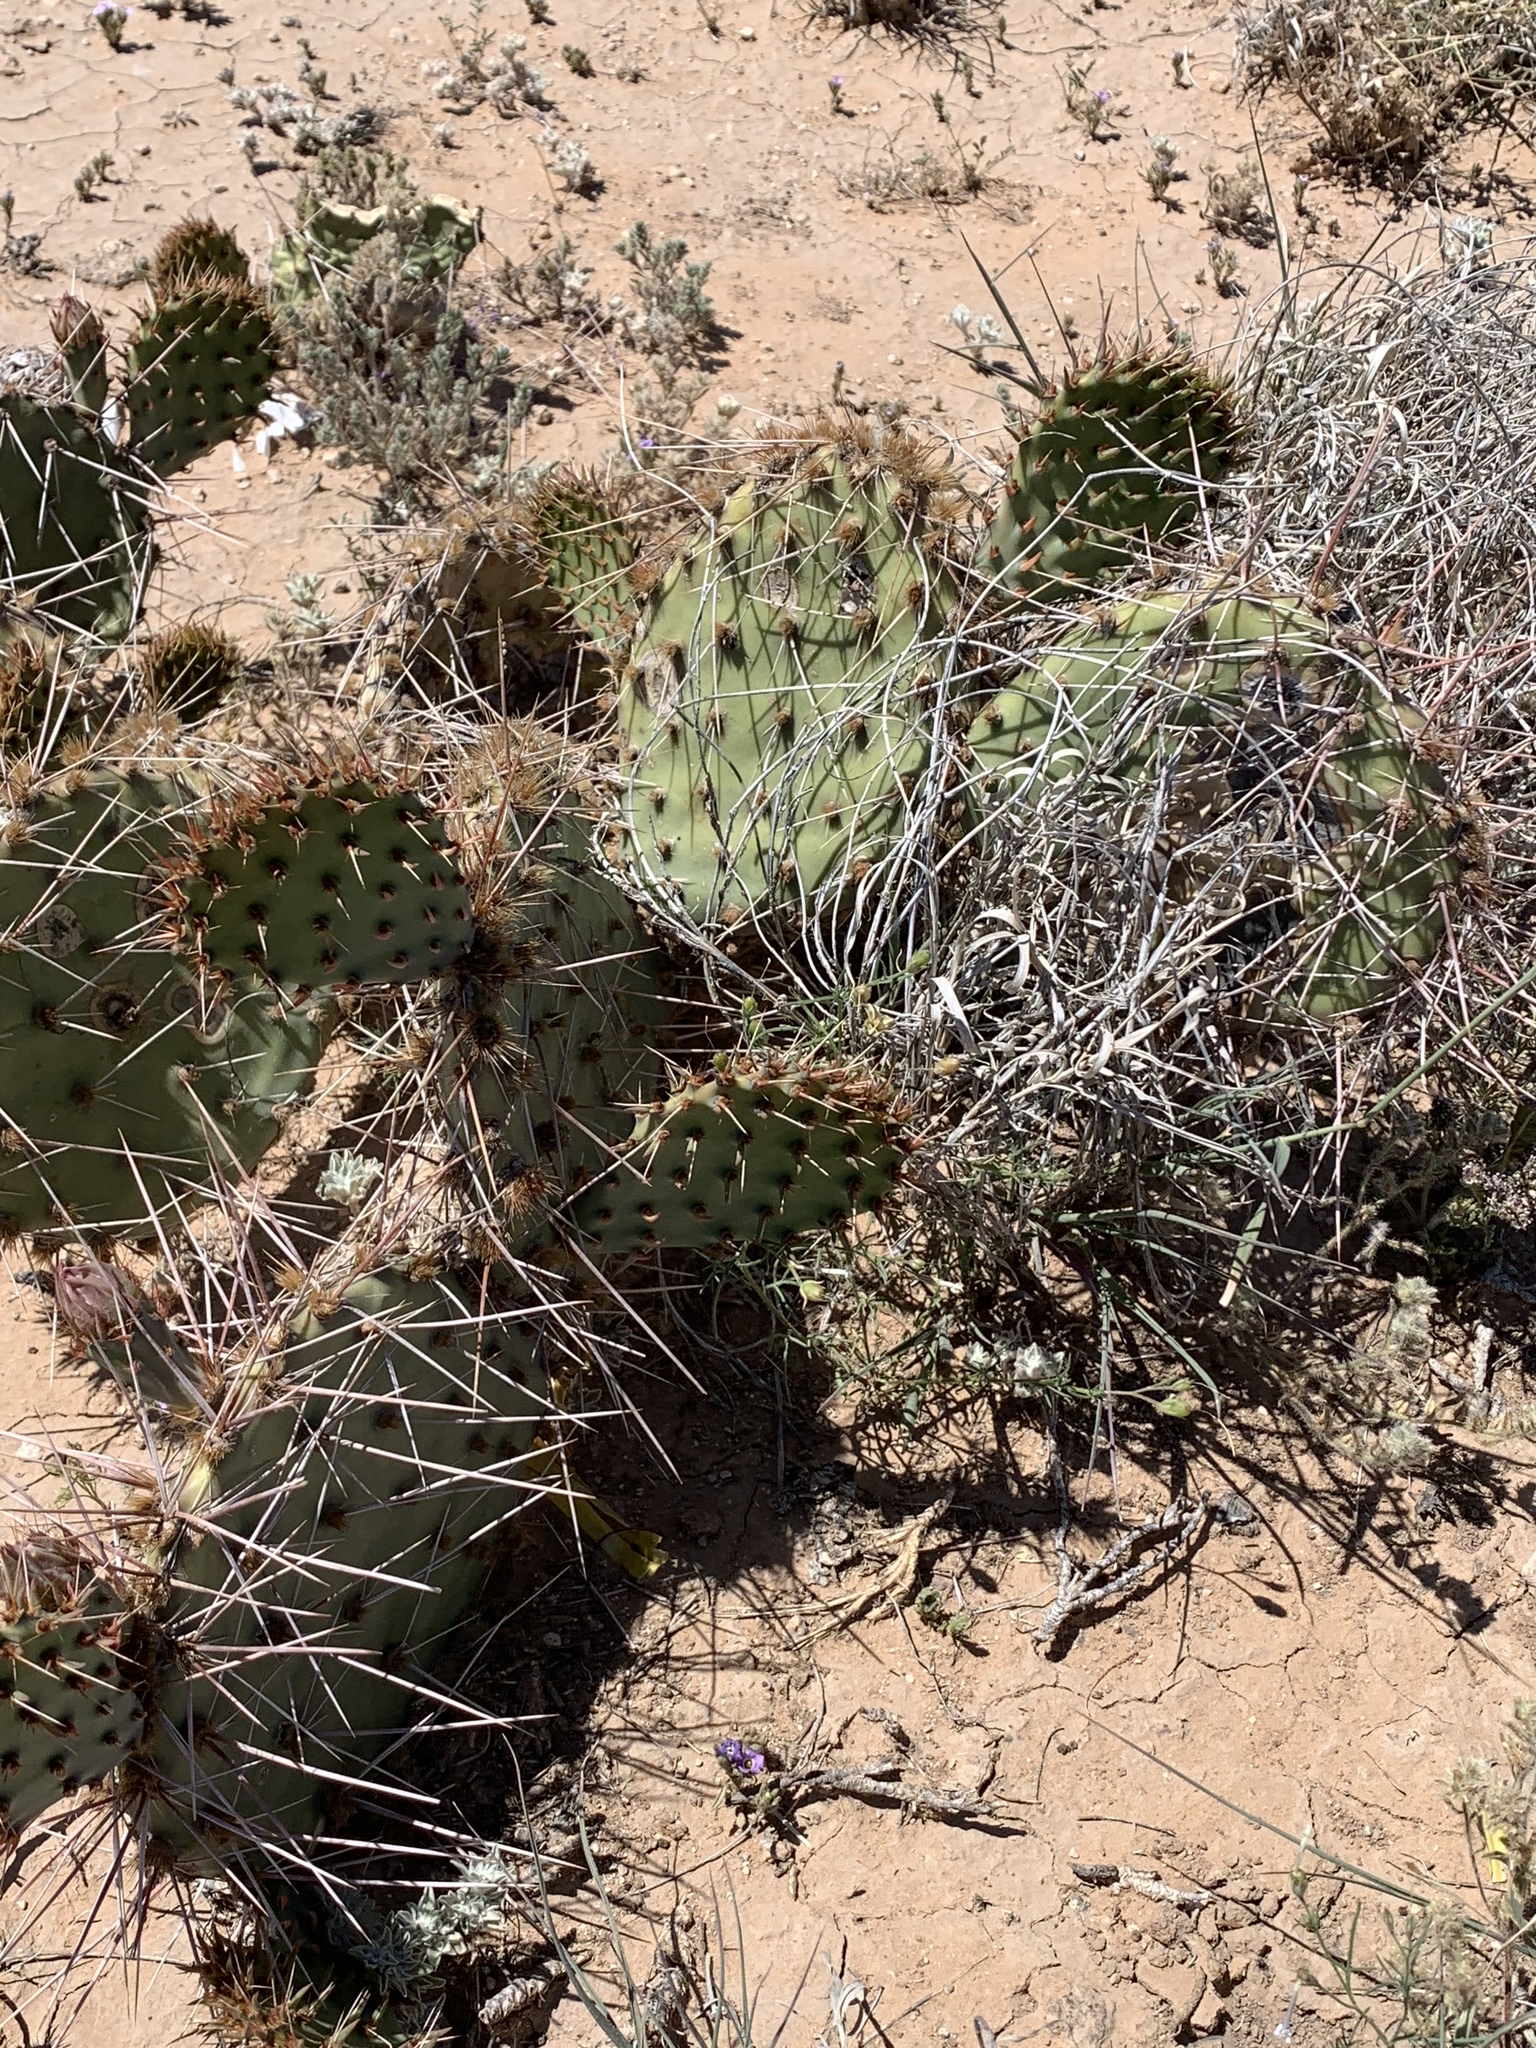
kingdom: Plantae
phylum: Tracheophyta
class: Magnoliopsida
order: Caryophyllales
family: Cactaceae
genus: Opuntia
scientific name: Opuntia macrorhiza
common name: Grassland pricklypear
